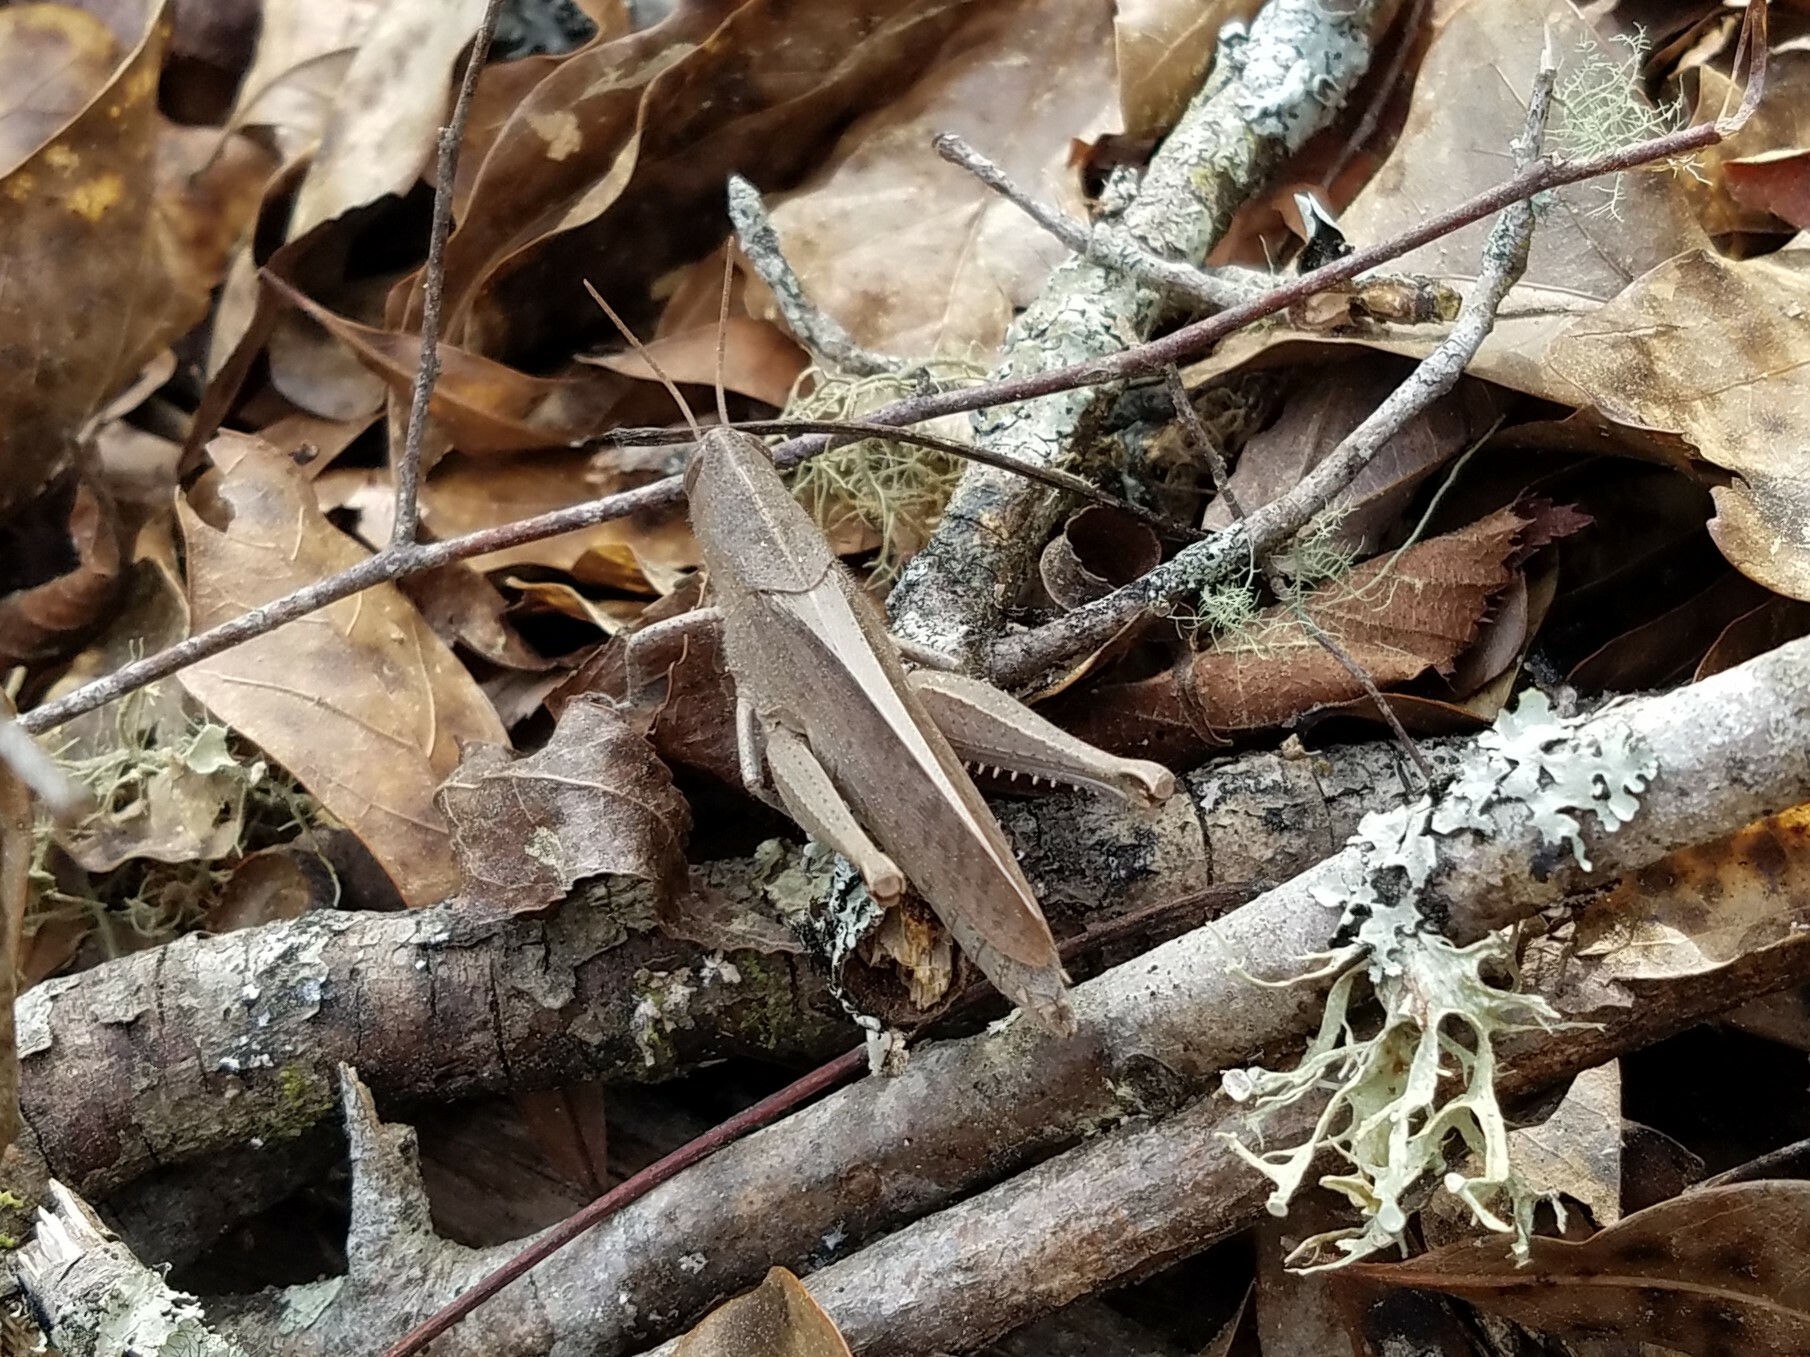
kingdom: Animalia
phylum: Arthropoda
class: Insecta
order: Orthoptera
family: Acrididae
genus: Schistocerca
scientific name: Schistocerca damnifica
